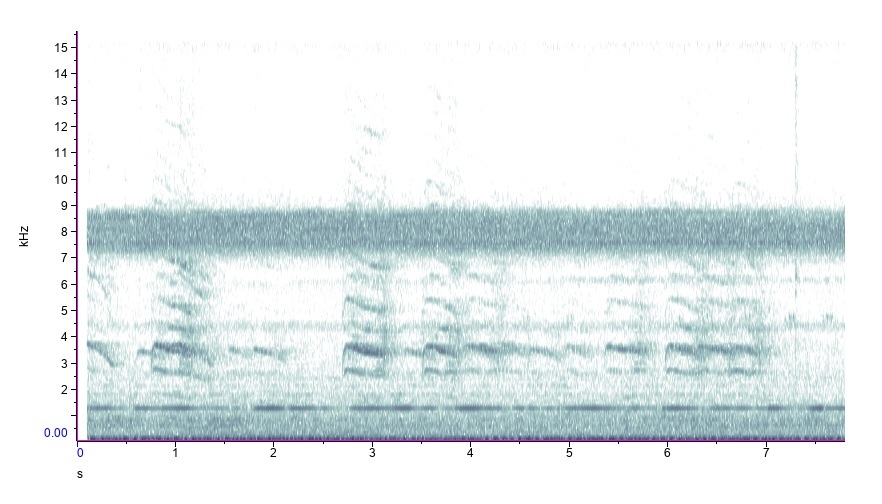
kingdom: Animalia
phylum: Chordata
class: Aves
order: Passeriformes
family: Corvidae
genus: Cyanocitta
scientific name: Cyanocitta cristata
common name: Blue jay
